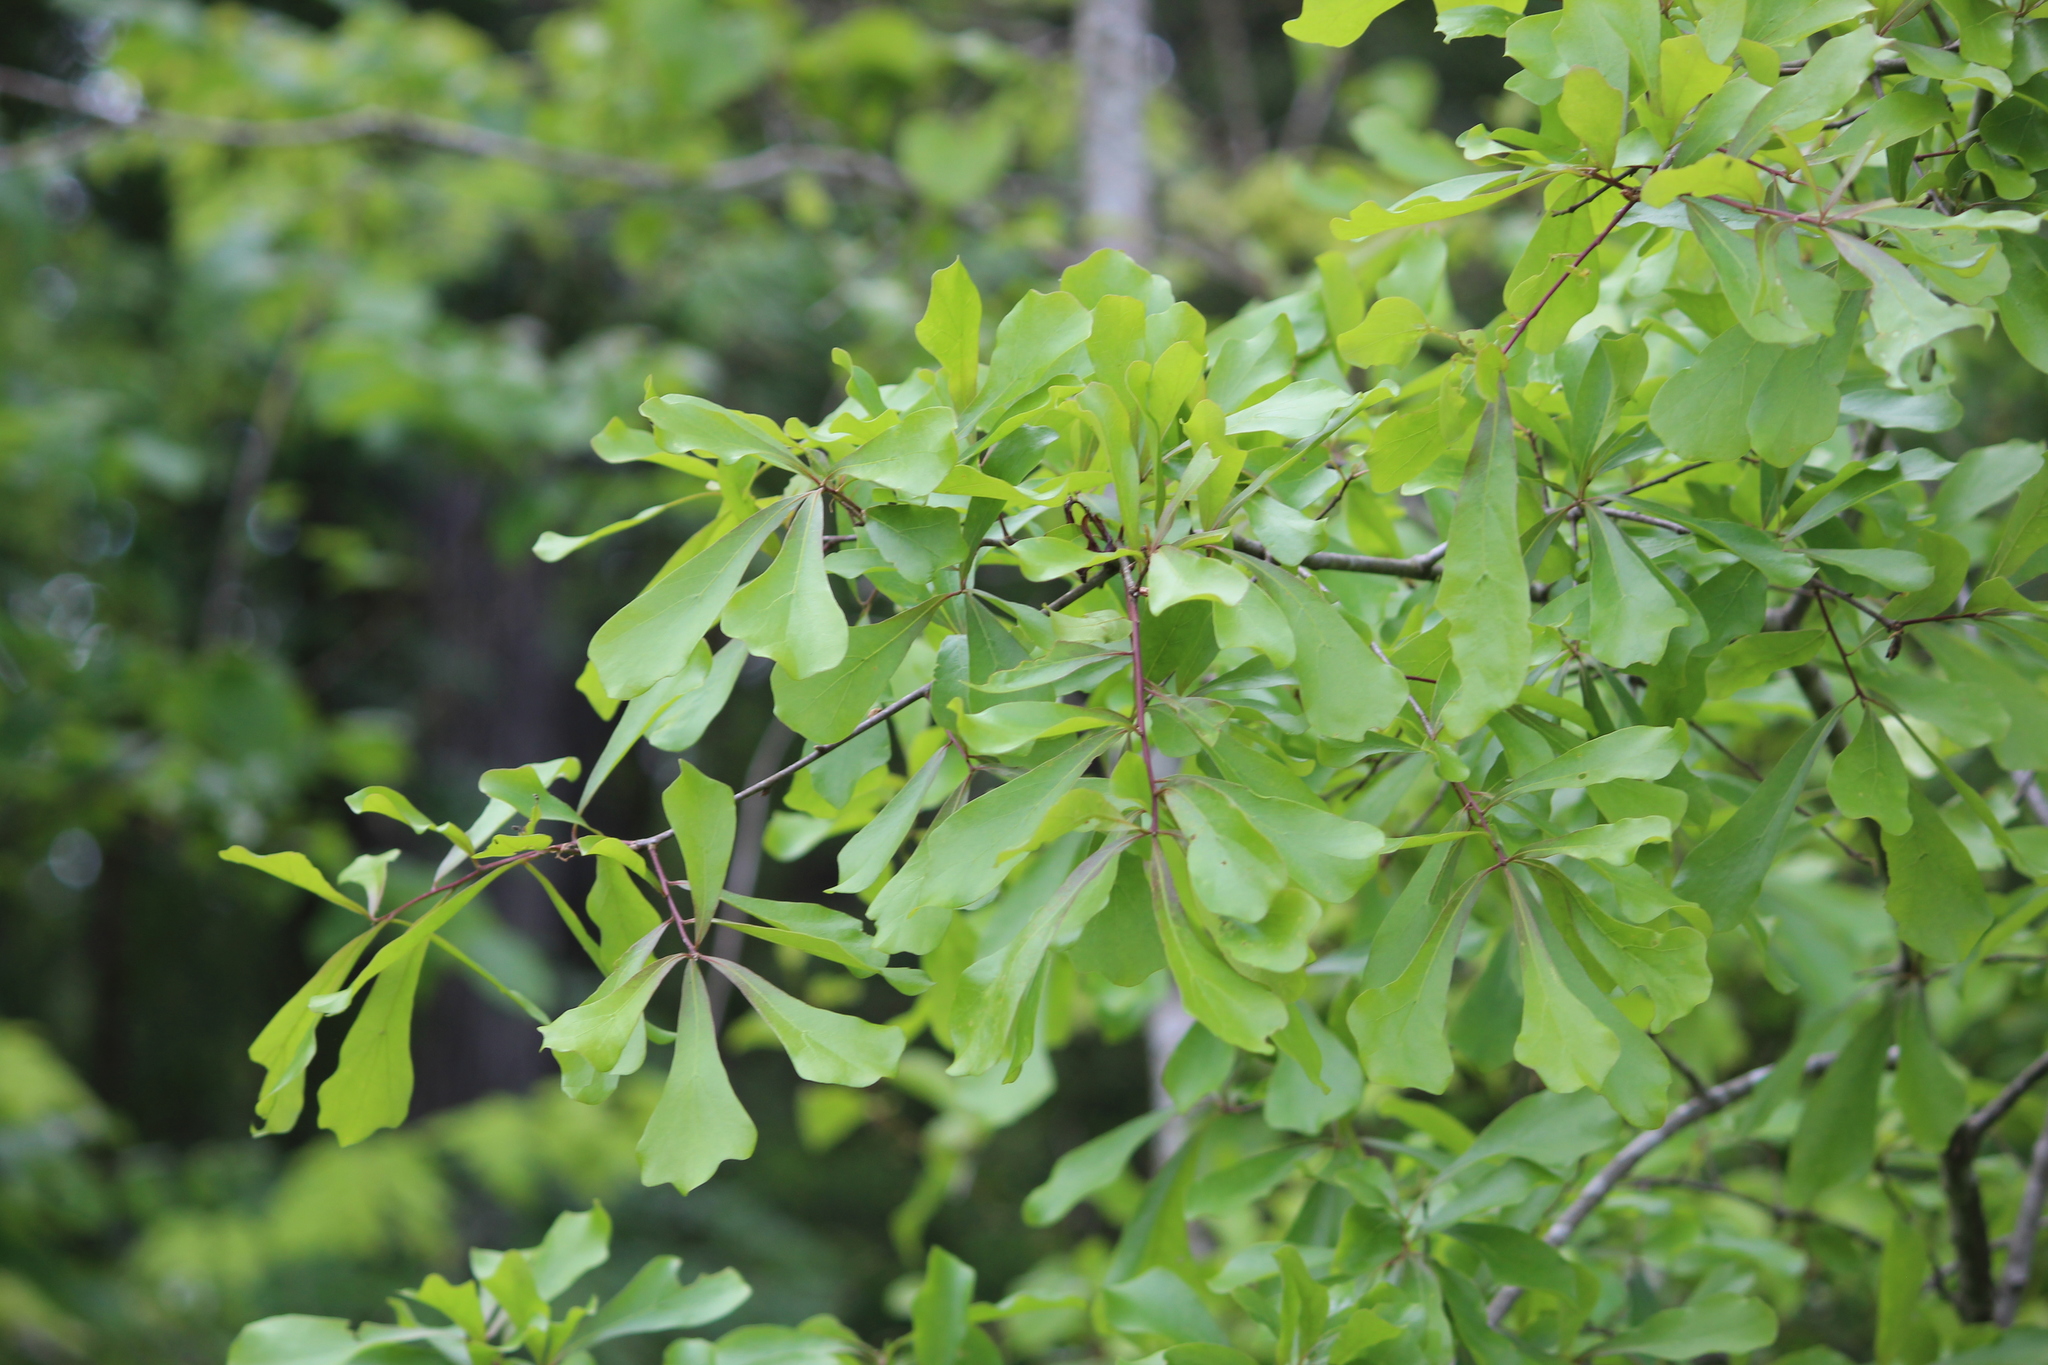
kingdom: Plantae
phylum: Tracheophyta
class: Magnoliopsida
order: Fagales
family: Fagaceae
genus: Quercus
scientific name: Quercus nigra
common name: Water oak
